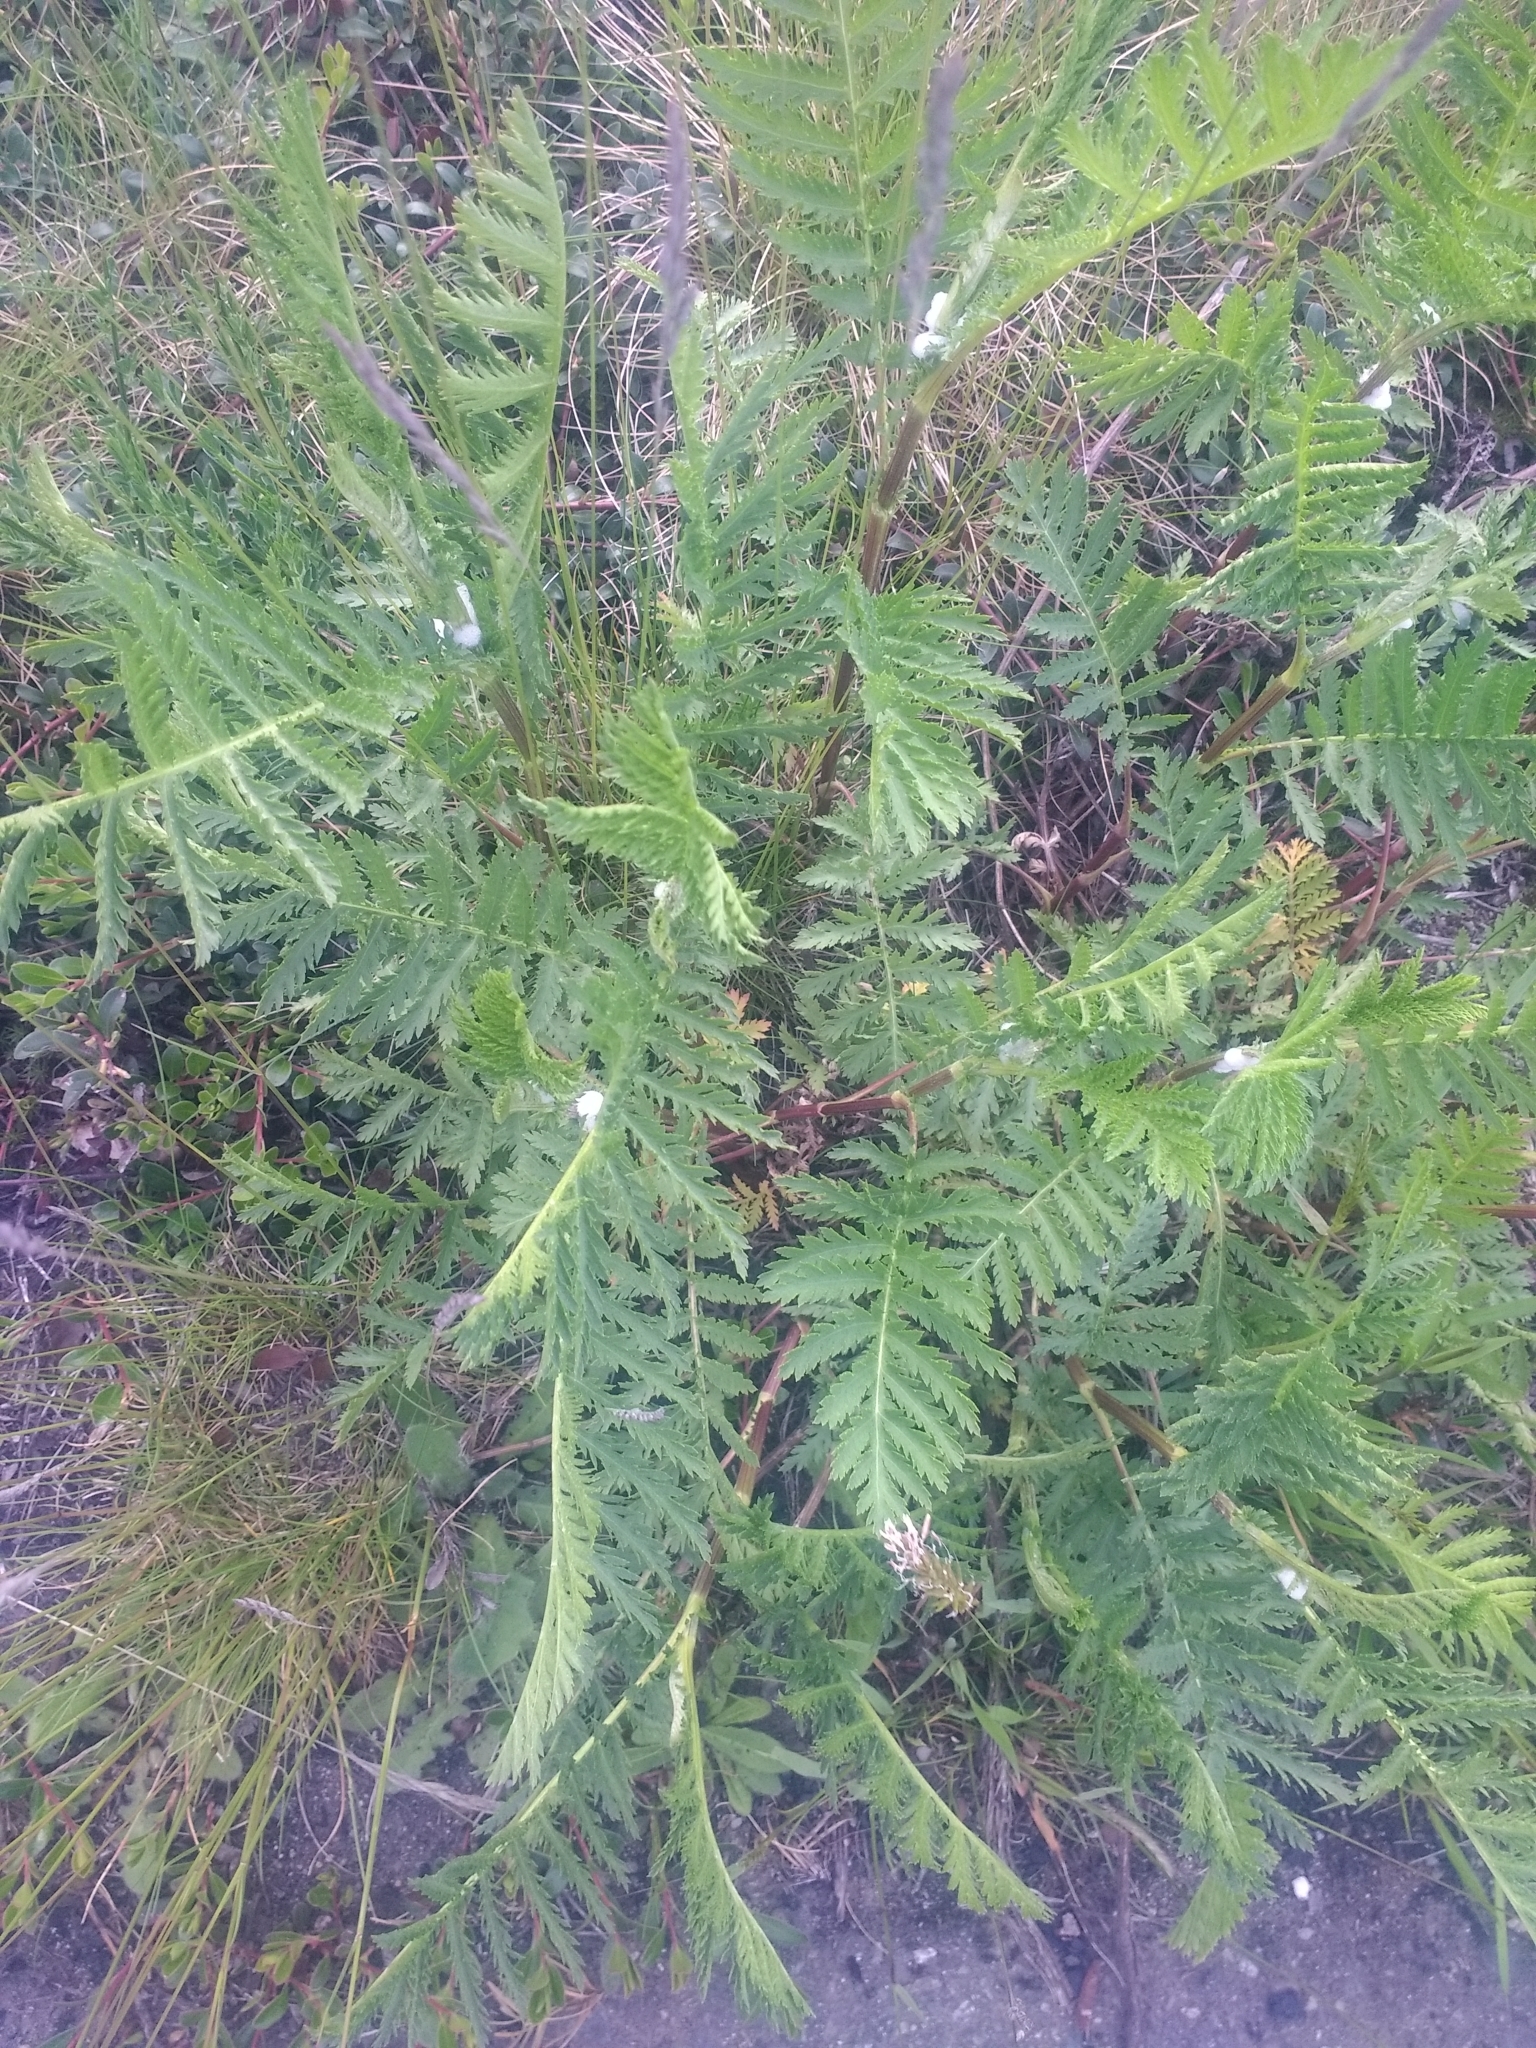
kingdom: Plantae
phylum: Tracheophyta
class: Magnoliopsida
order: Asterales
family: Asteraceae
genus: Tanacetum
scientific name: Tanacetum vulgare
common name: Common tansy
